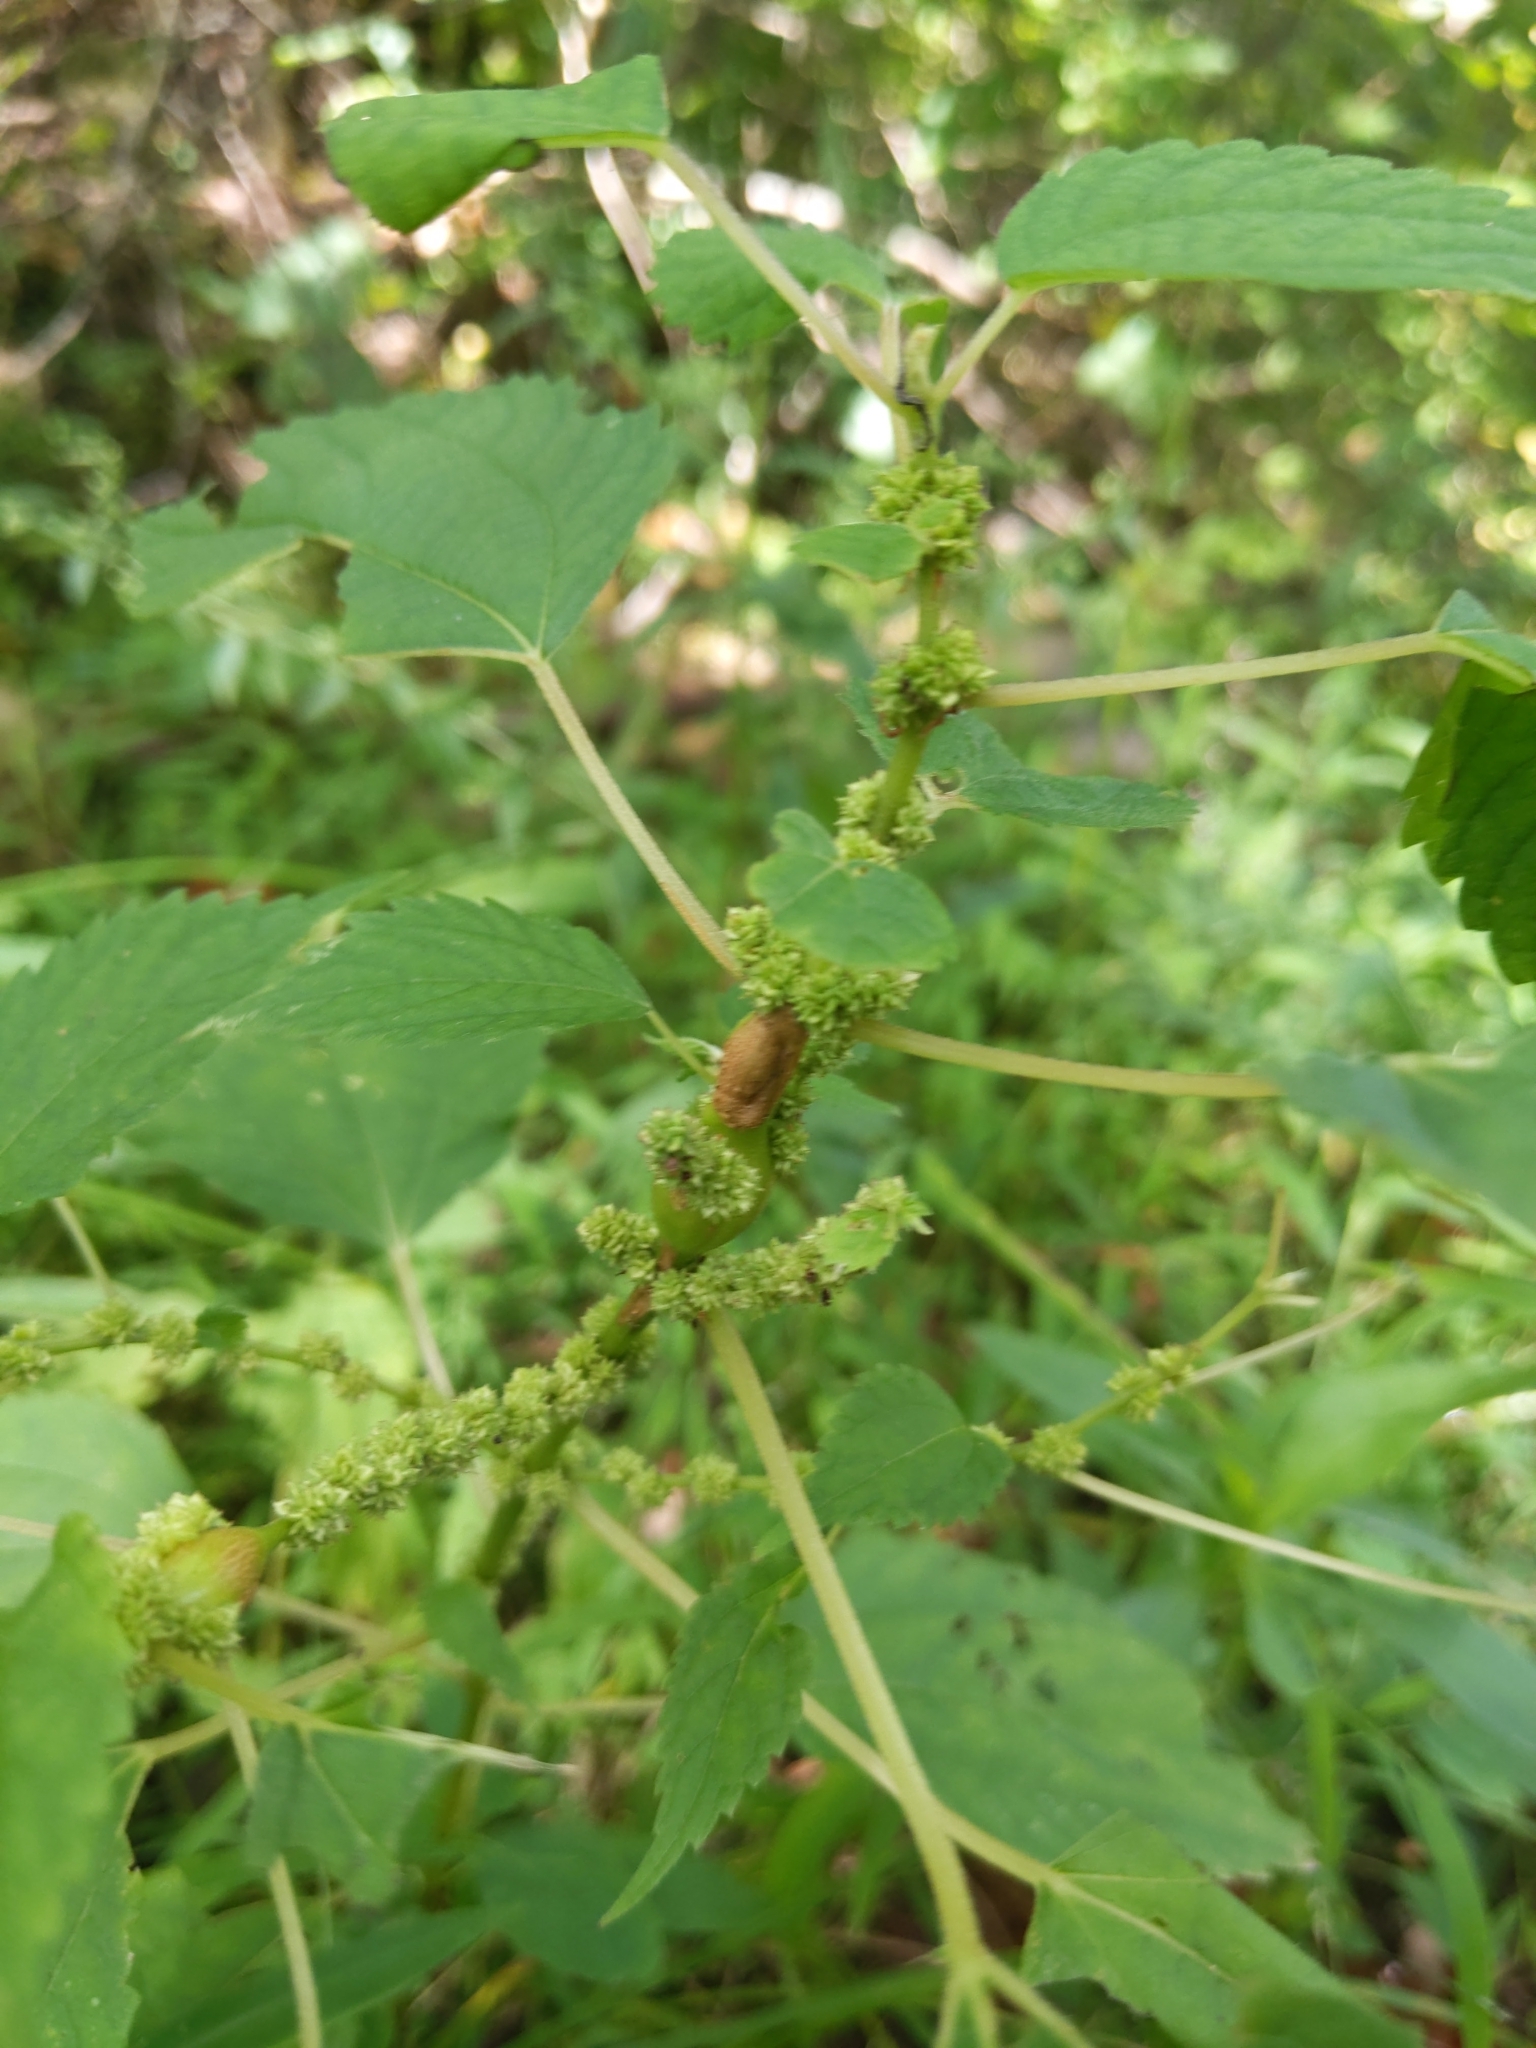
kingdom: Plantae
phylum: Tracheophyta
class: Magnoliopsida
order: Rosales
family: Urticaceae
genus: Boehmeria
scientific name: Boehmeria cylindrica
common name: Bog-hemp
